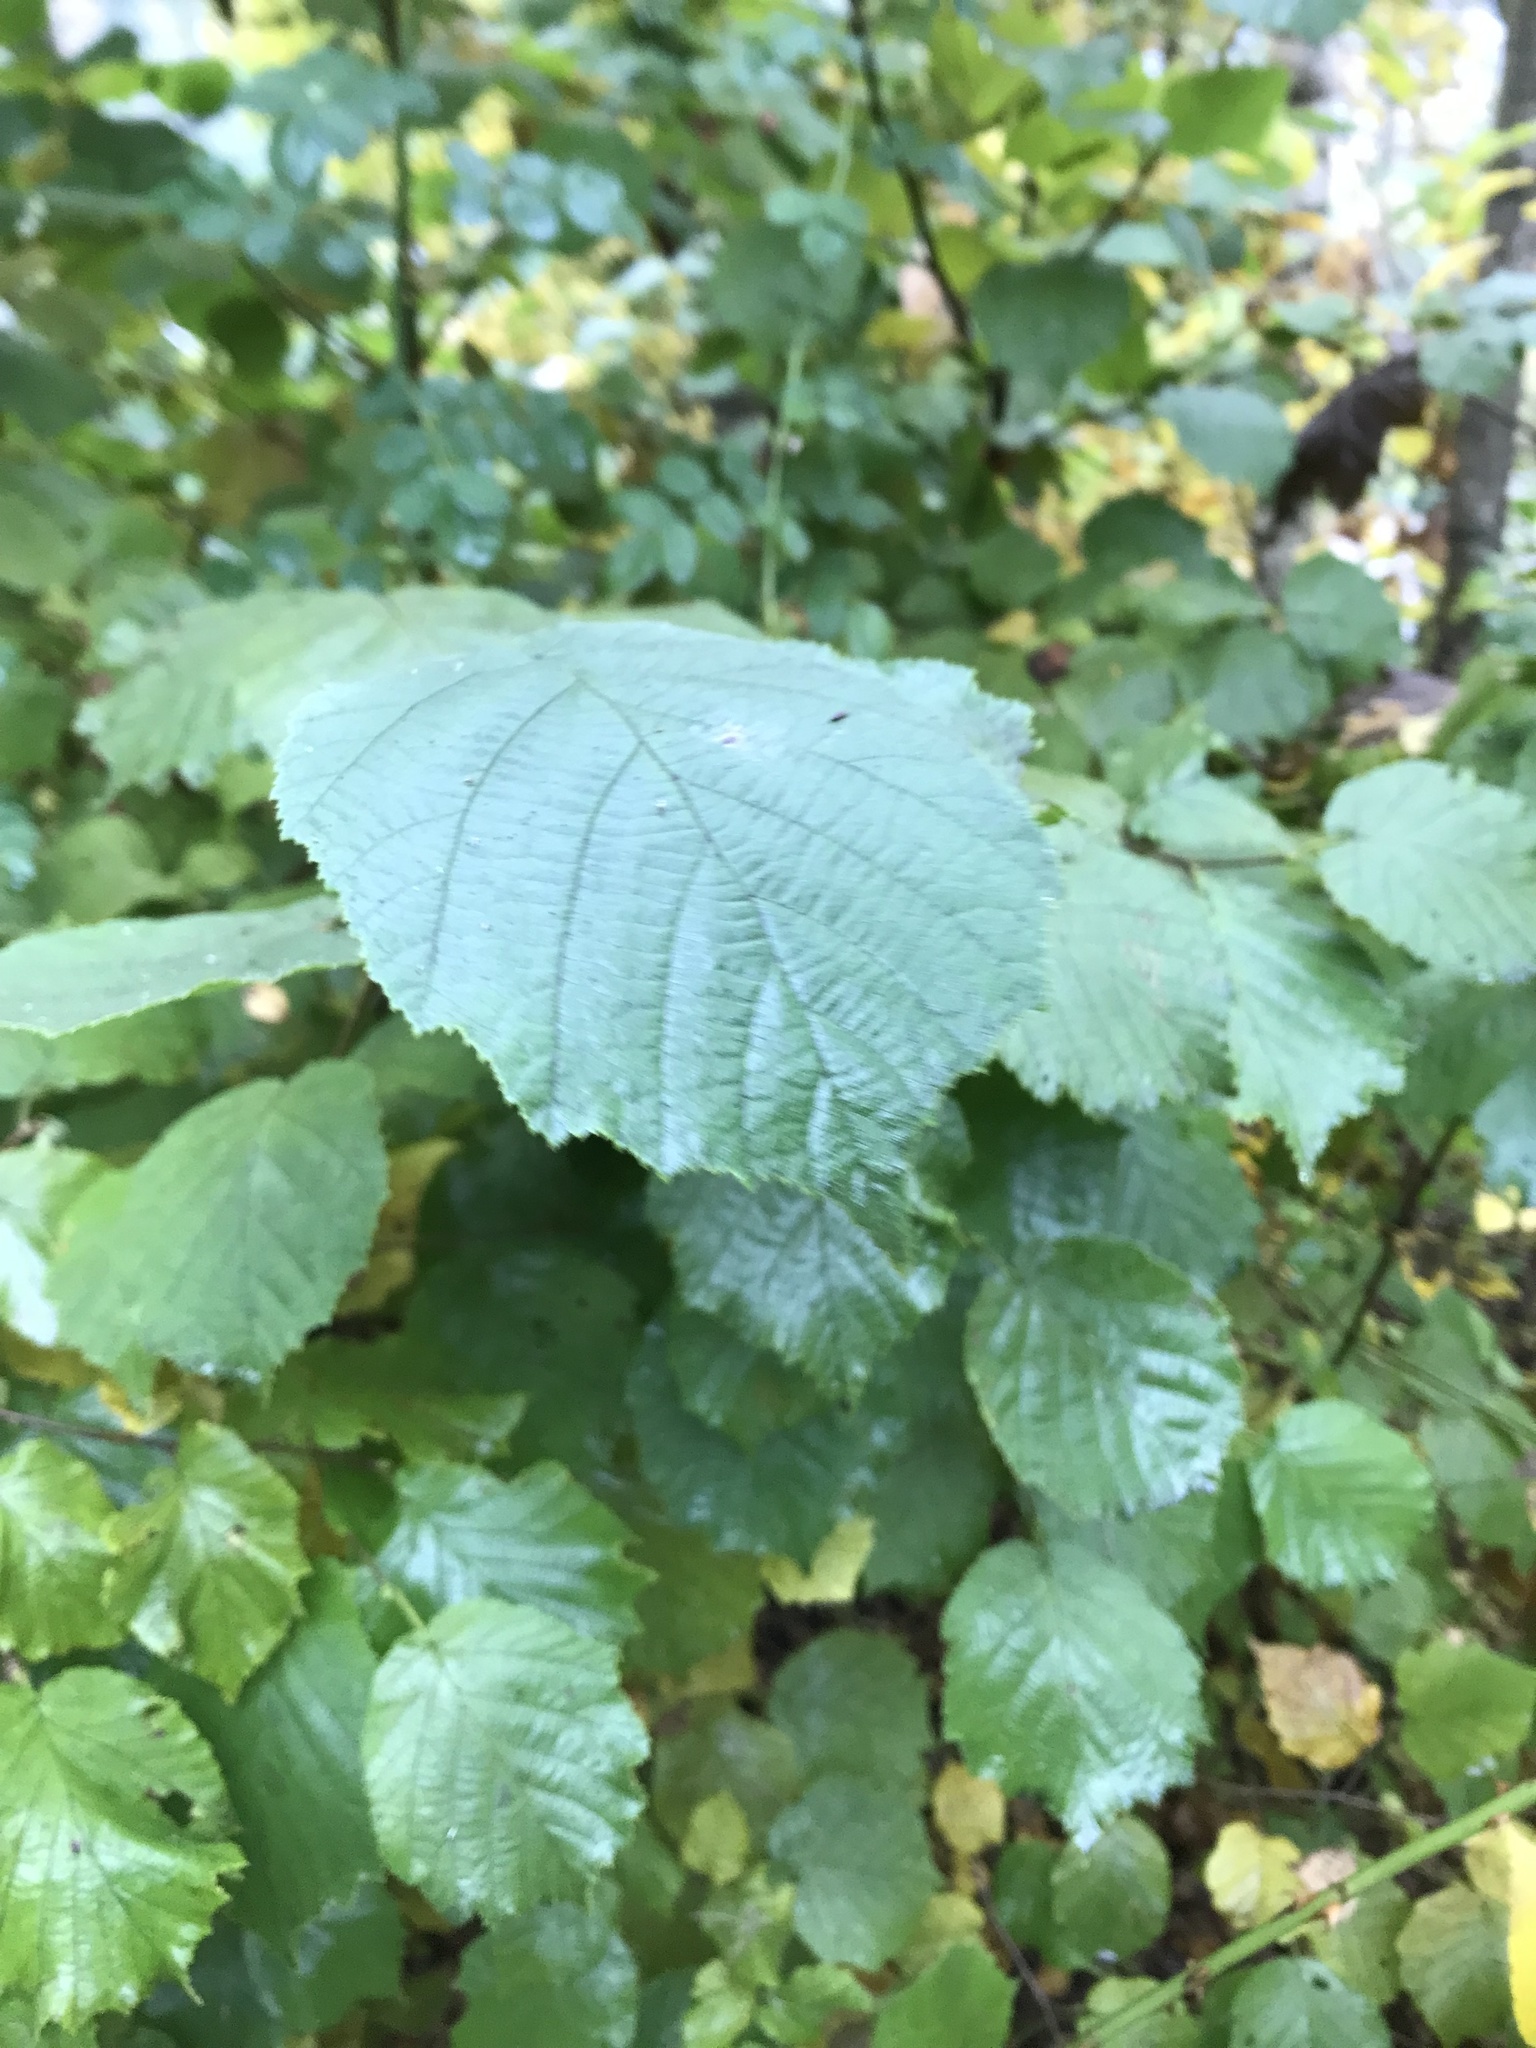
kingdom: Plantae
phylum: Tracheophyta
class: Magnoliopsida
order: Fagales
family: Betulaceae
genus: Corylus
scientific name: Corylus avellana
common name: European hazel
